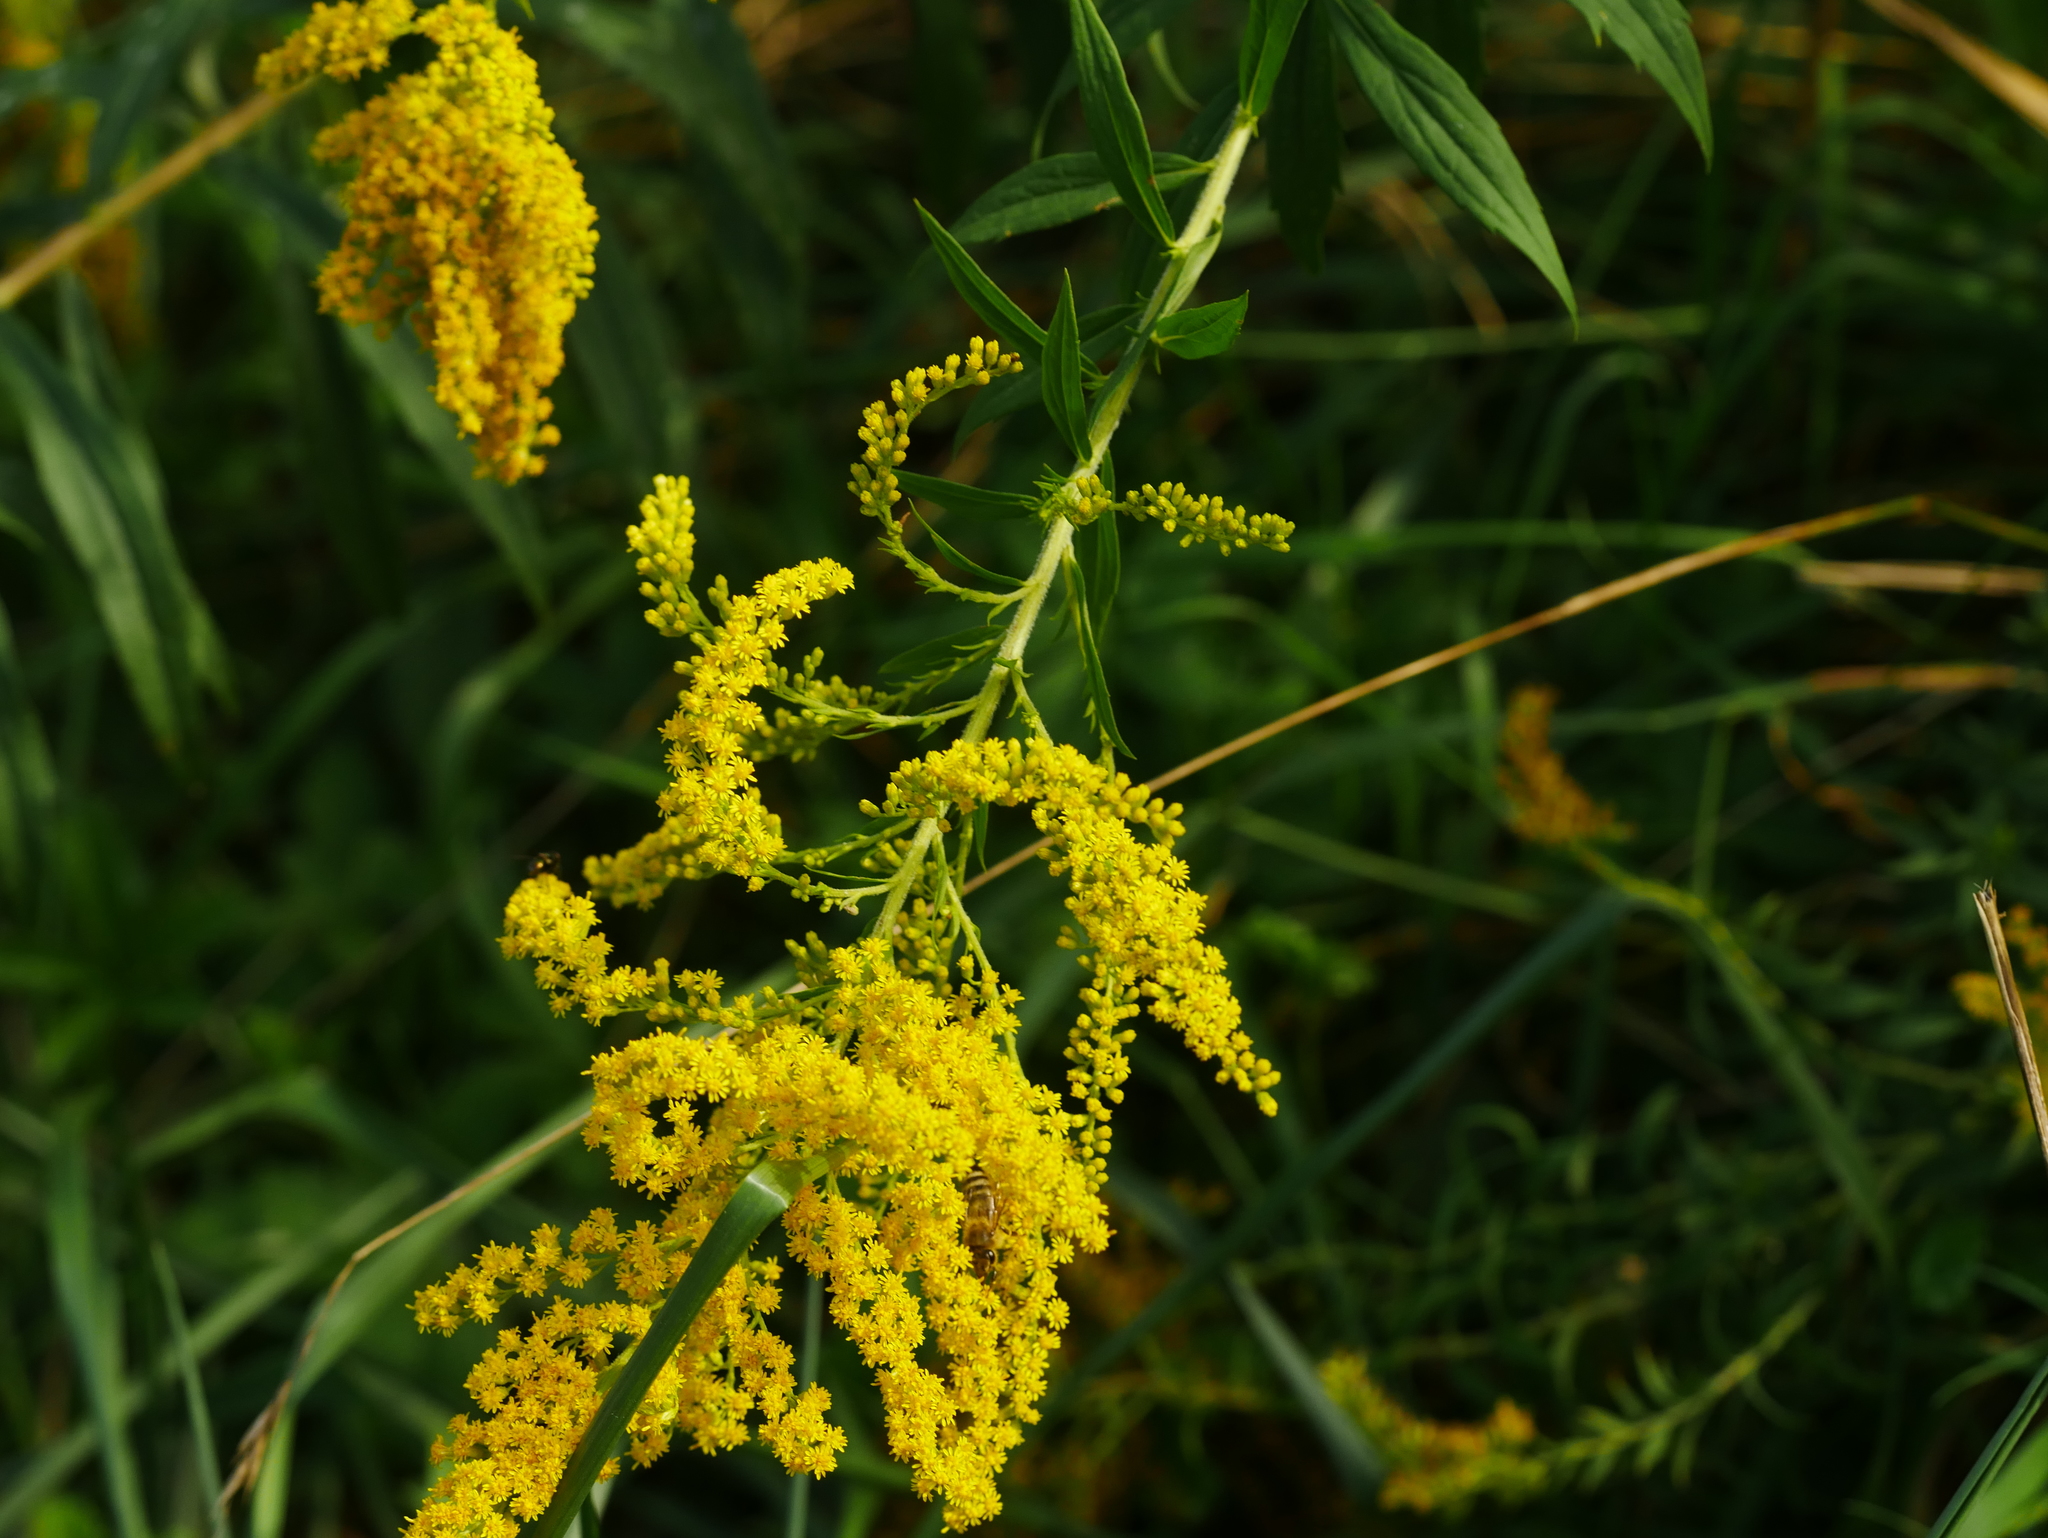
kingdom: Plantae
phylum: Tracheophyta
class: Magnoliopsida
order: Asterales
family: Asteraceae
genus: Solidago
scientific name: Solidago canadensis
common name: Canada goldenrod
